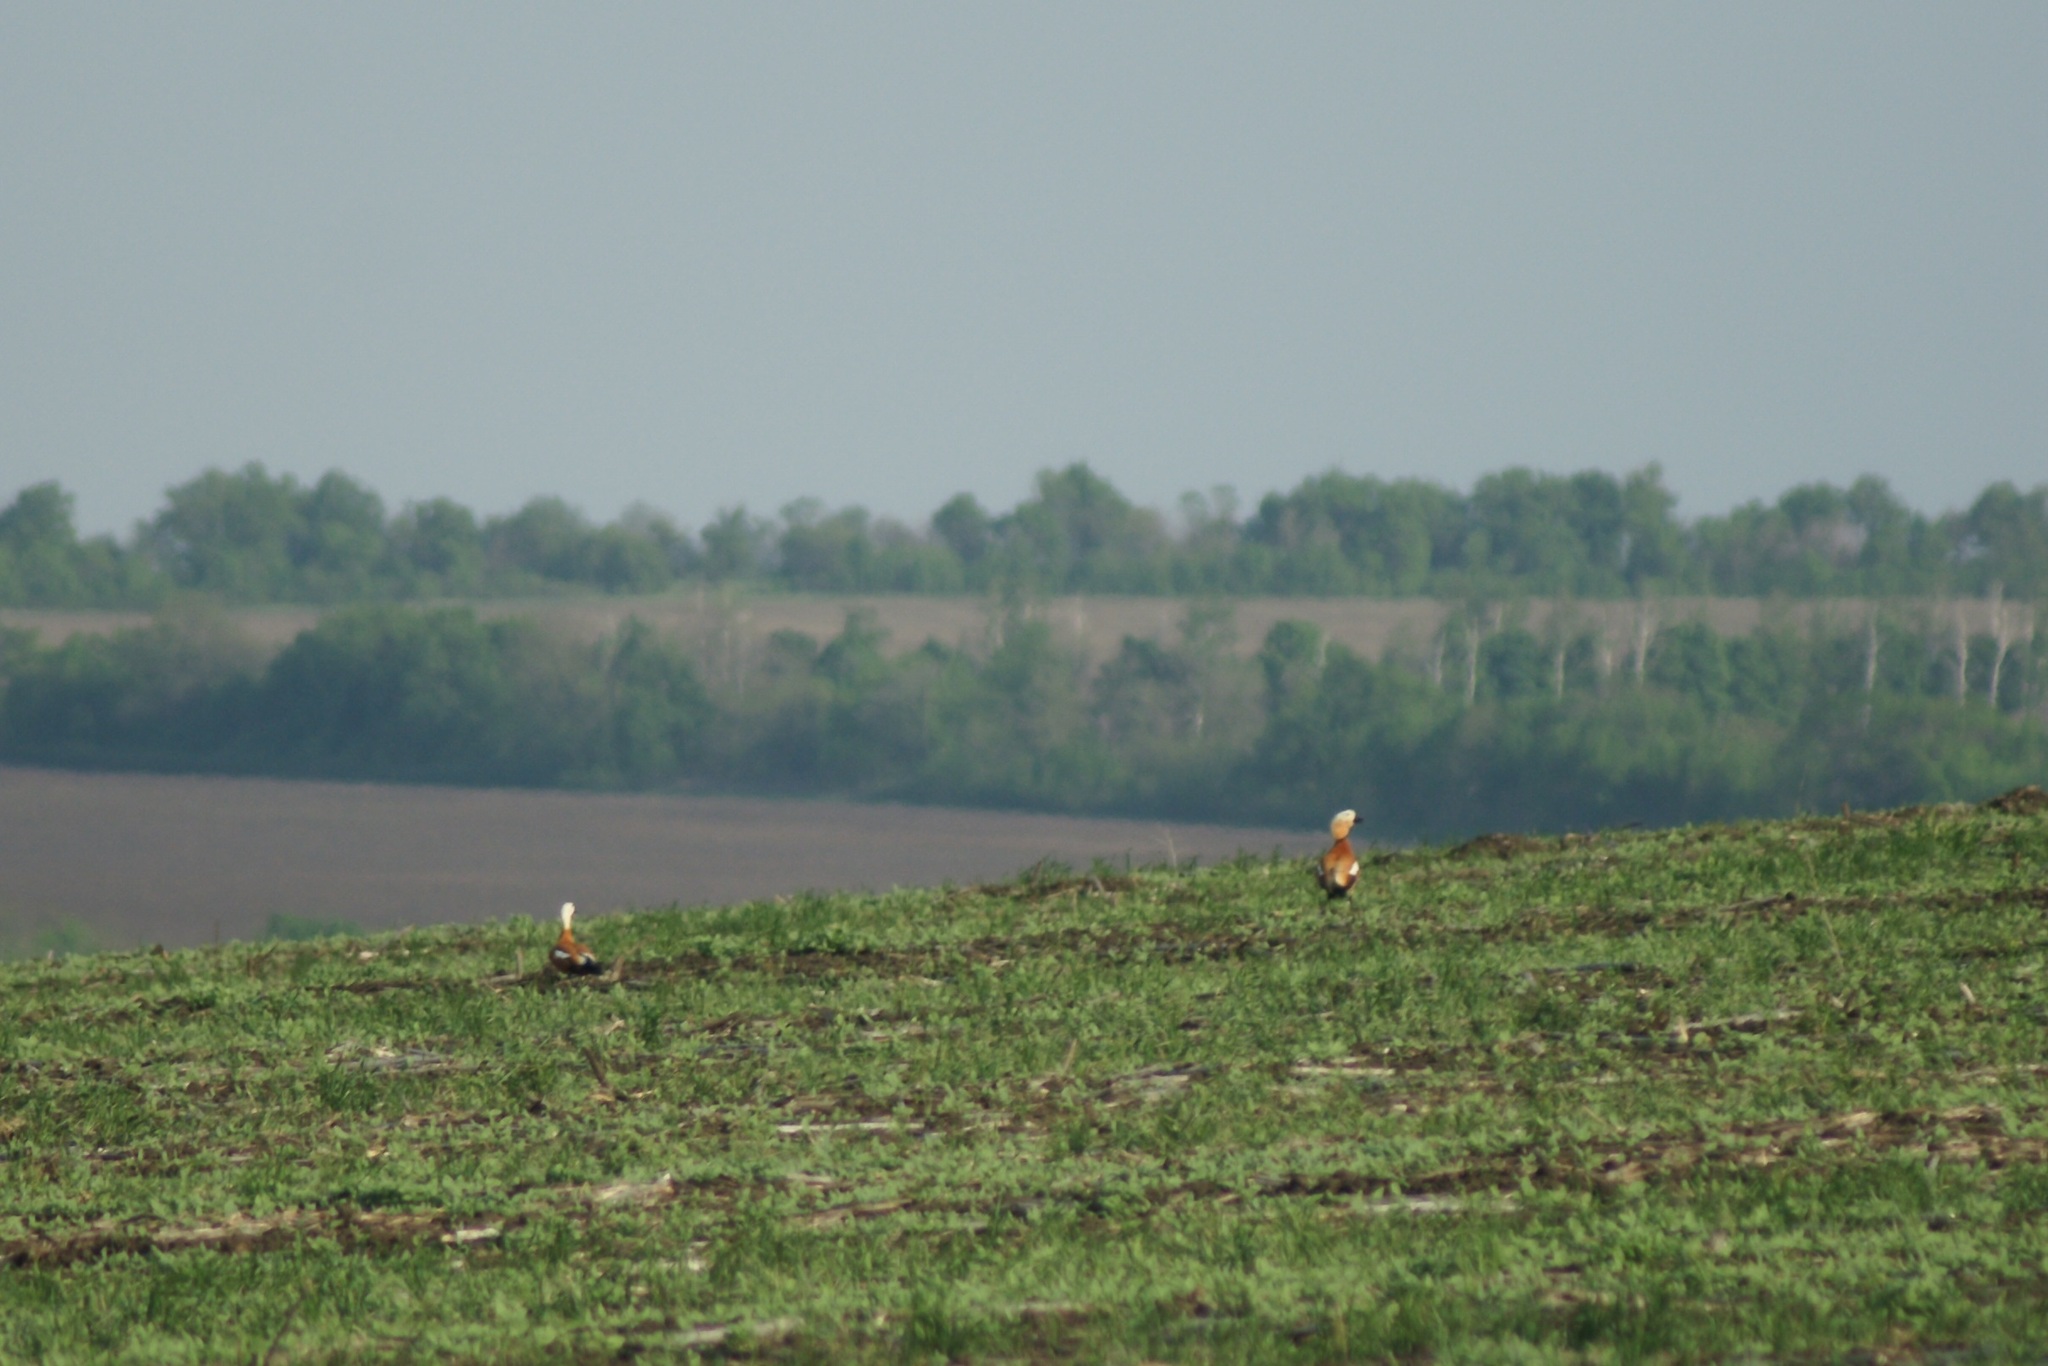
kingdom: Animalia
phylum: Chordata
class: Aves
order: Anseriformes
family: Anatidae
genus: Tadorna
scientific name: Tadorna ferruginea
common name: Ruddy shelduck
